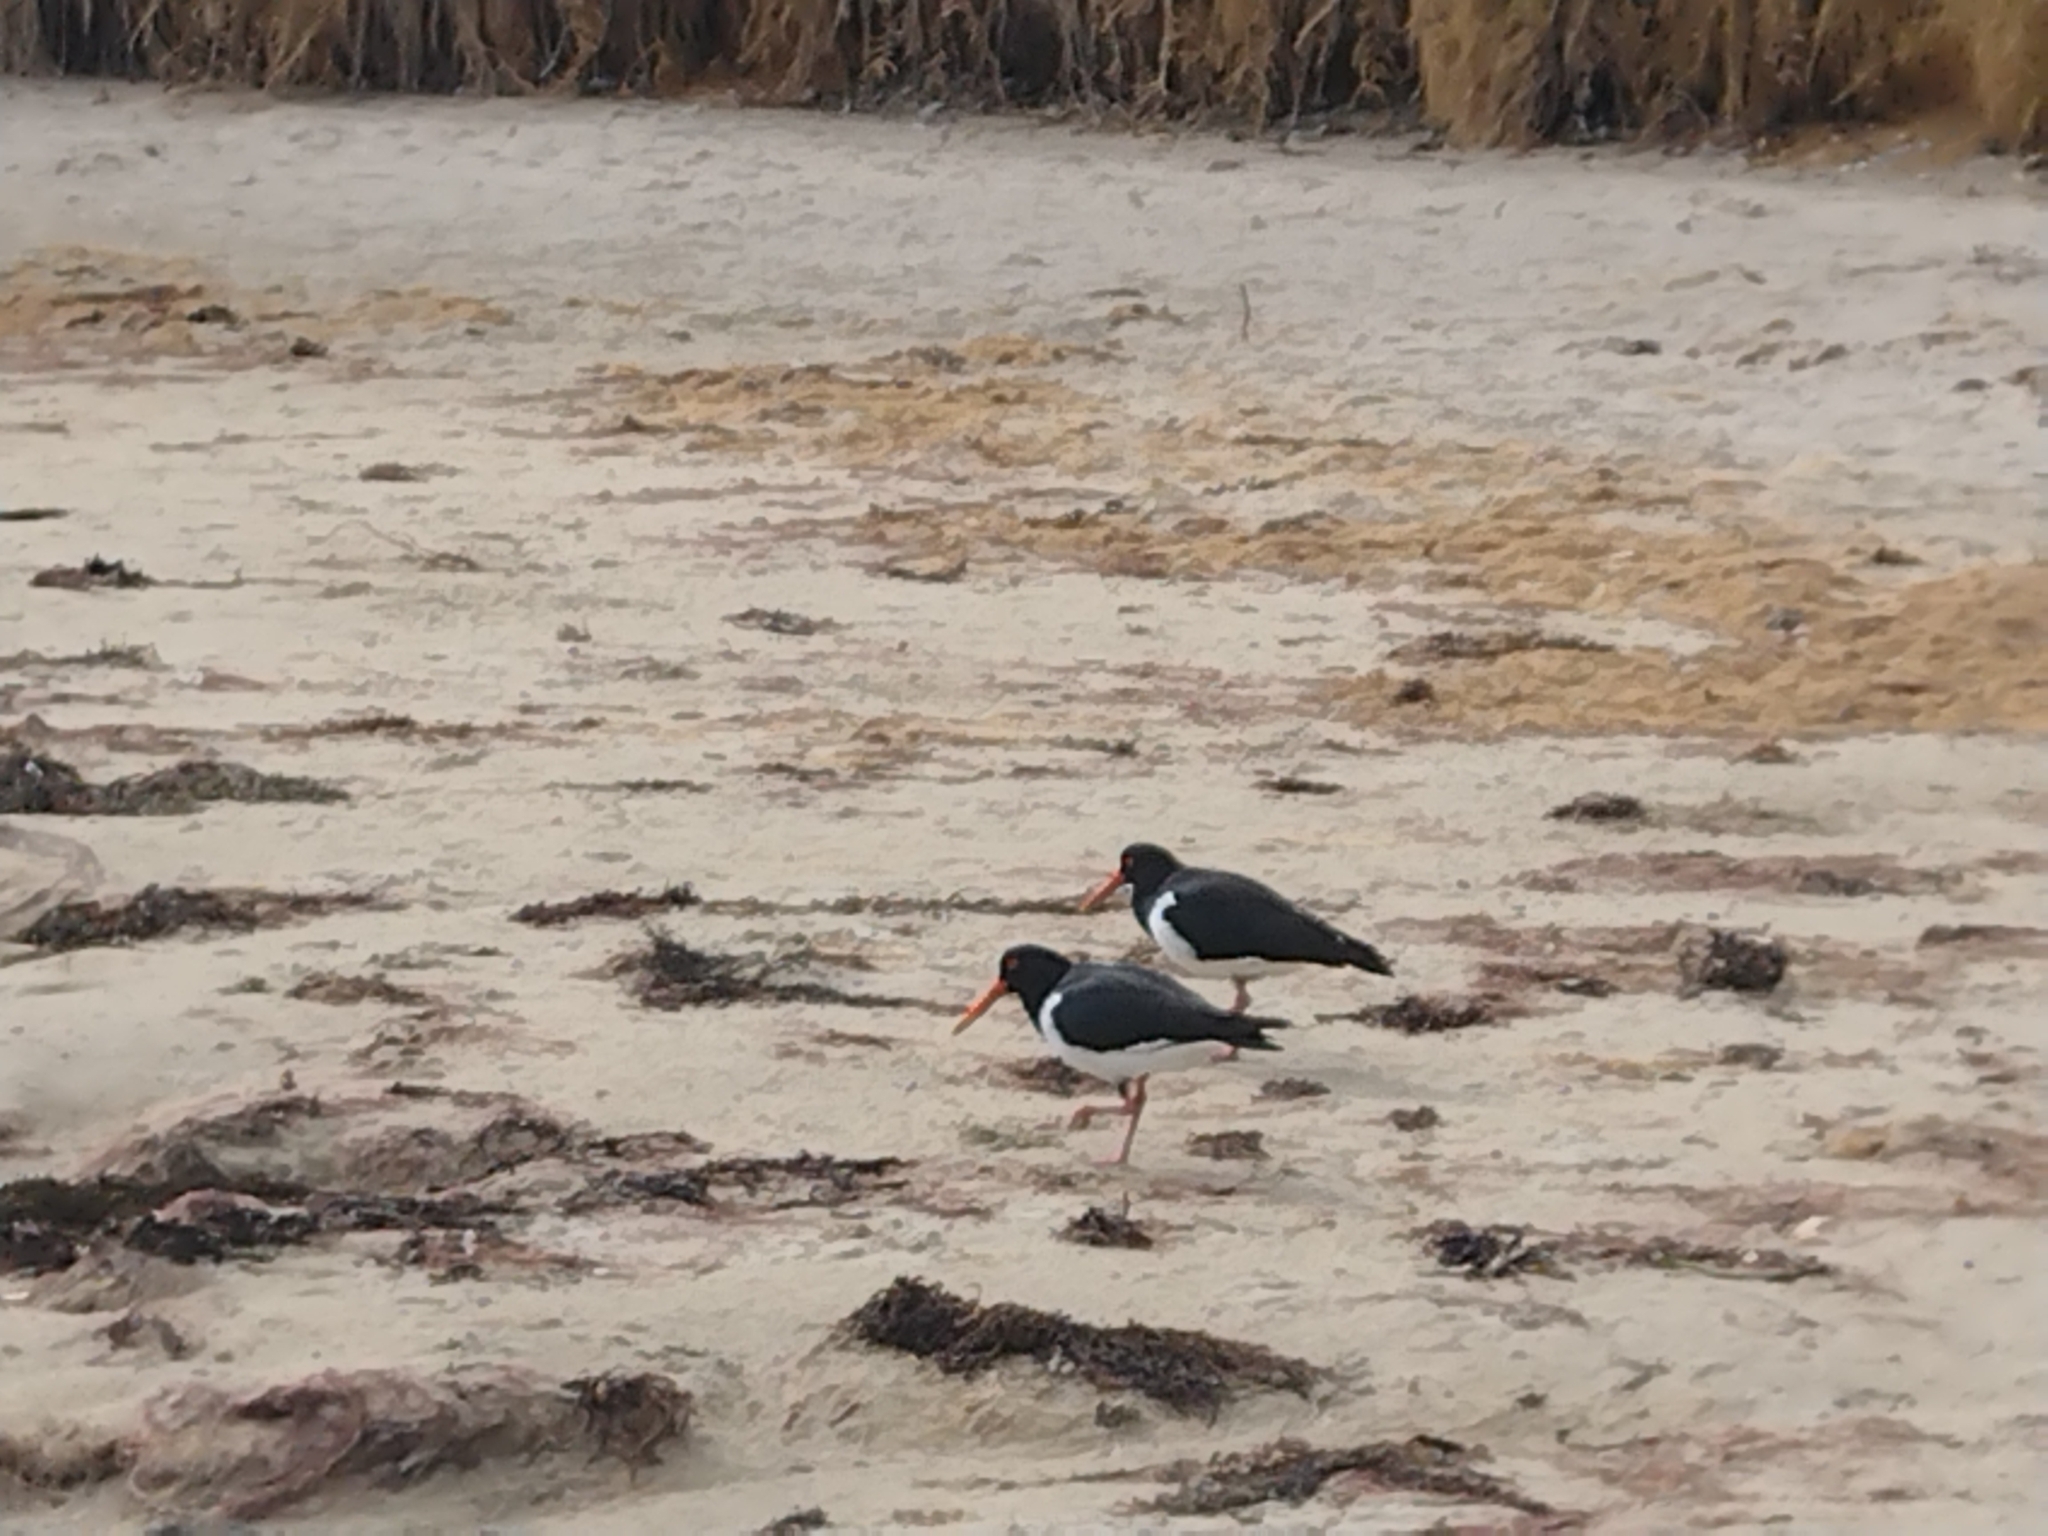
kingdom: Animalia
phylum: Chordata
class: Aves
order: Charadriiformes
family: Haematopodidae
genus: Haematopus
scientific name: Haematopus longirostris
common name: Pied oystercatcher
